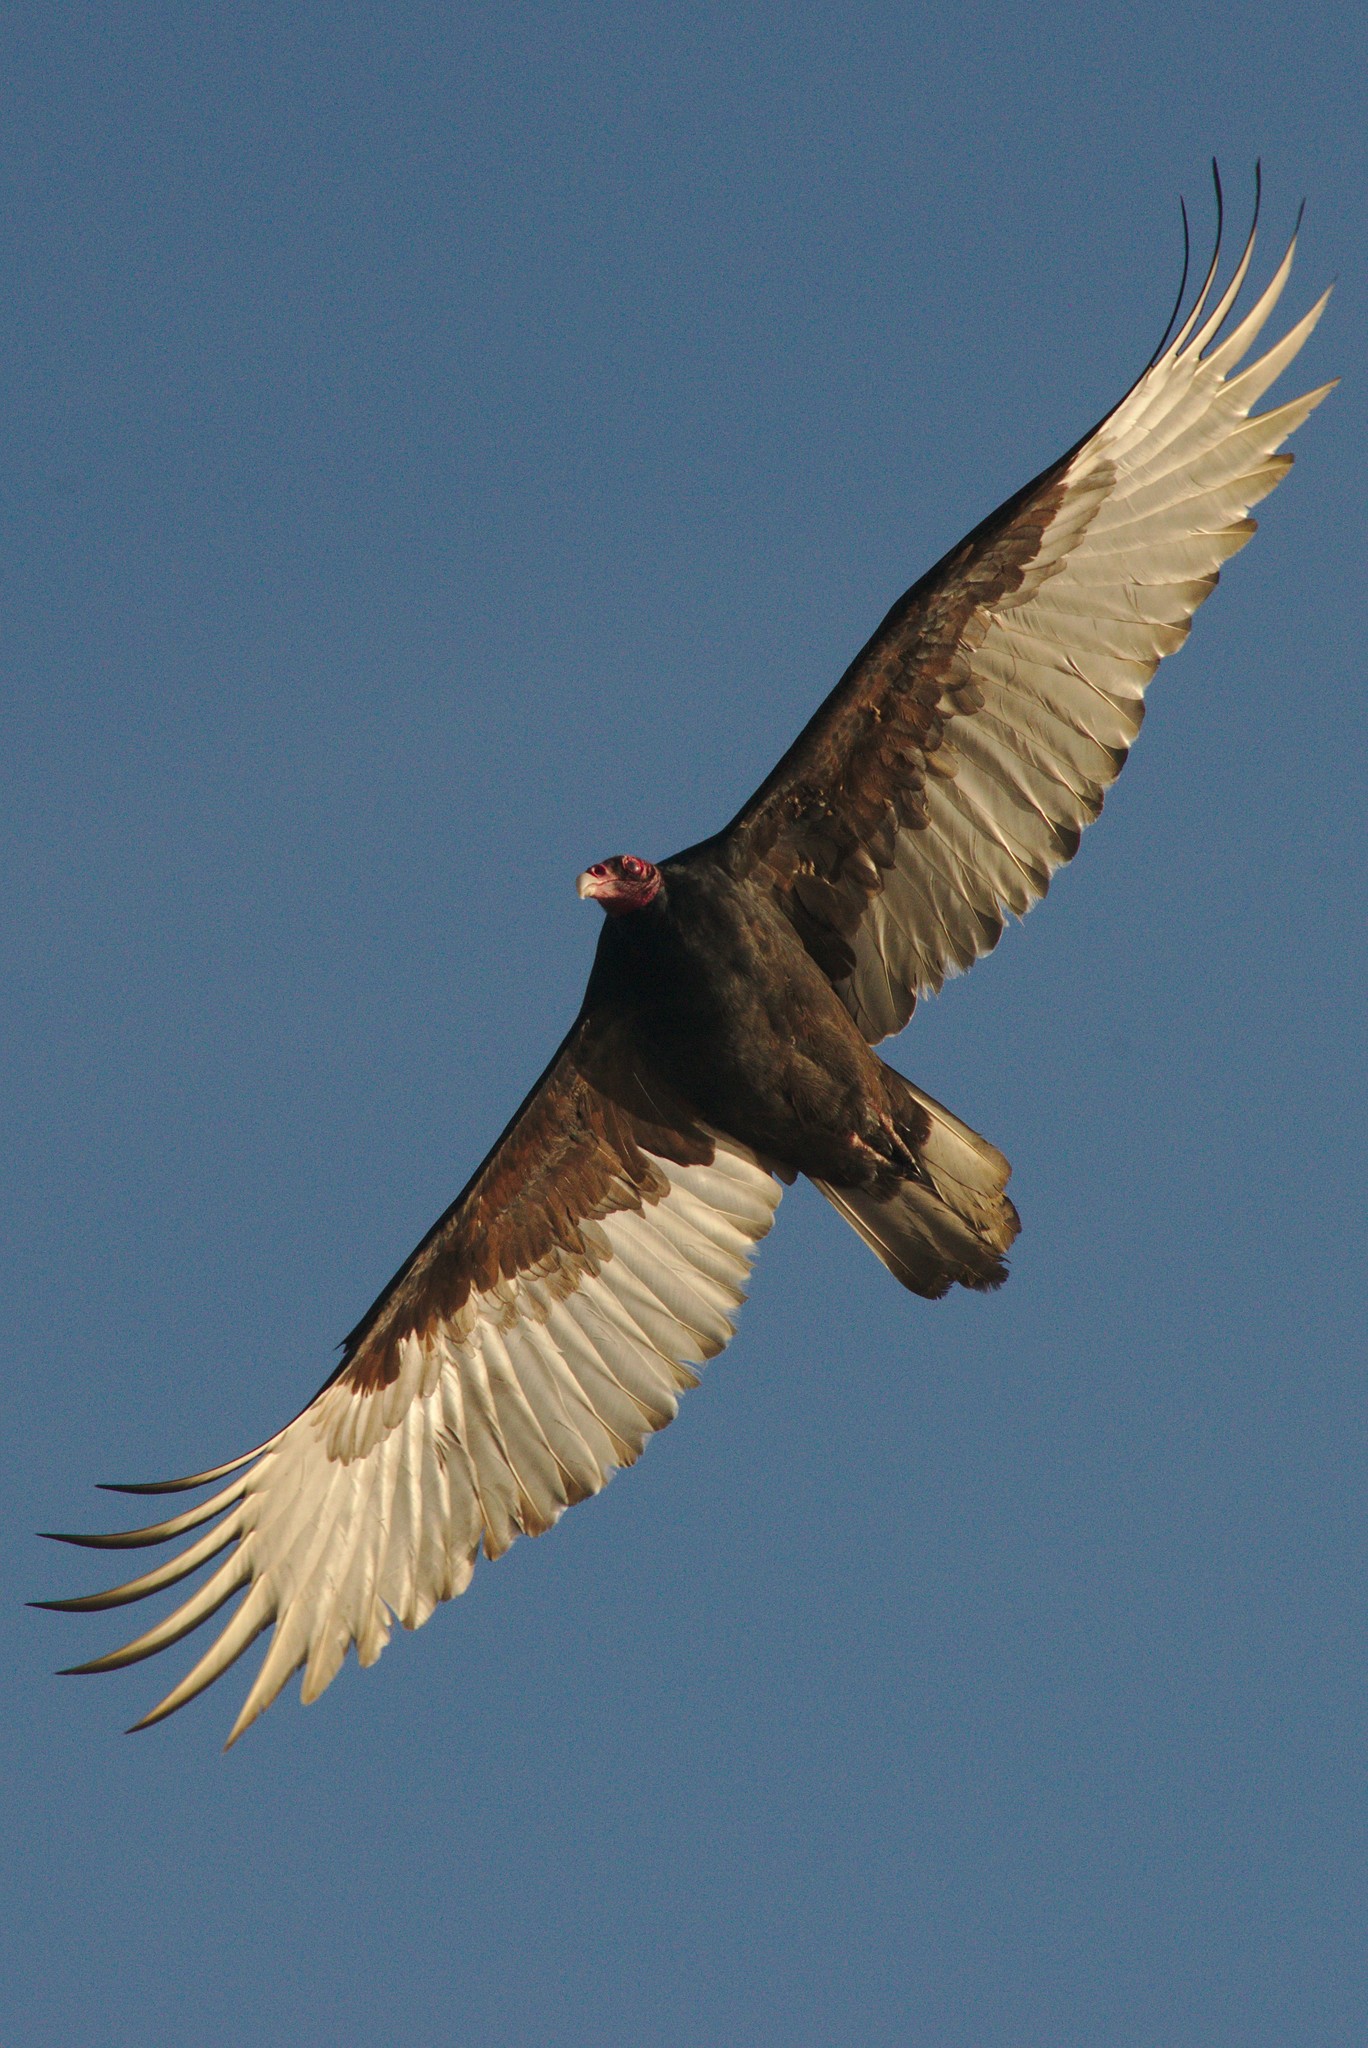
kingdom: Animalia
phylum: Chordata
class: Aves
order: Accipitriformes
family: Cathartidae
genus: Cathartes
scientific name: Cathartes aura
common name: Turkey vulture
